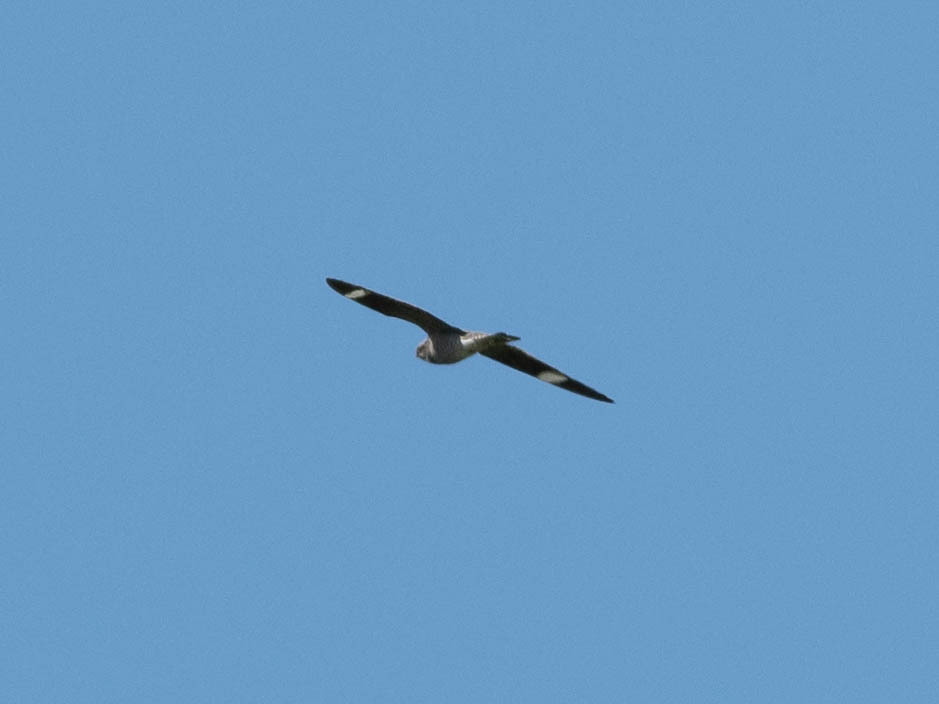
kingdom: Animalia
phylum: Chordata
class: Aves
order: Caprimulgiformes
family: Caprimulgidae
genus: Chordeiles
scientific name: Chordeiles minor
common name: Common nighthawk
